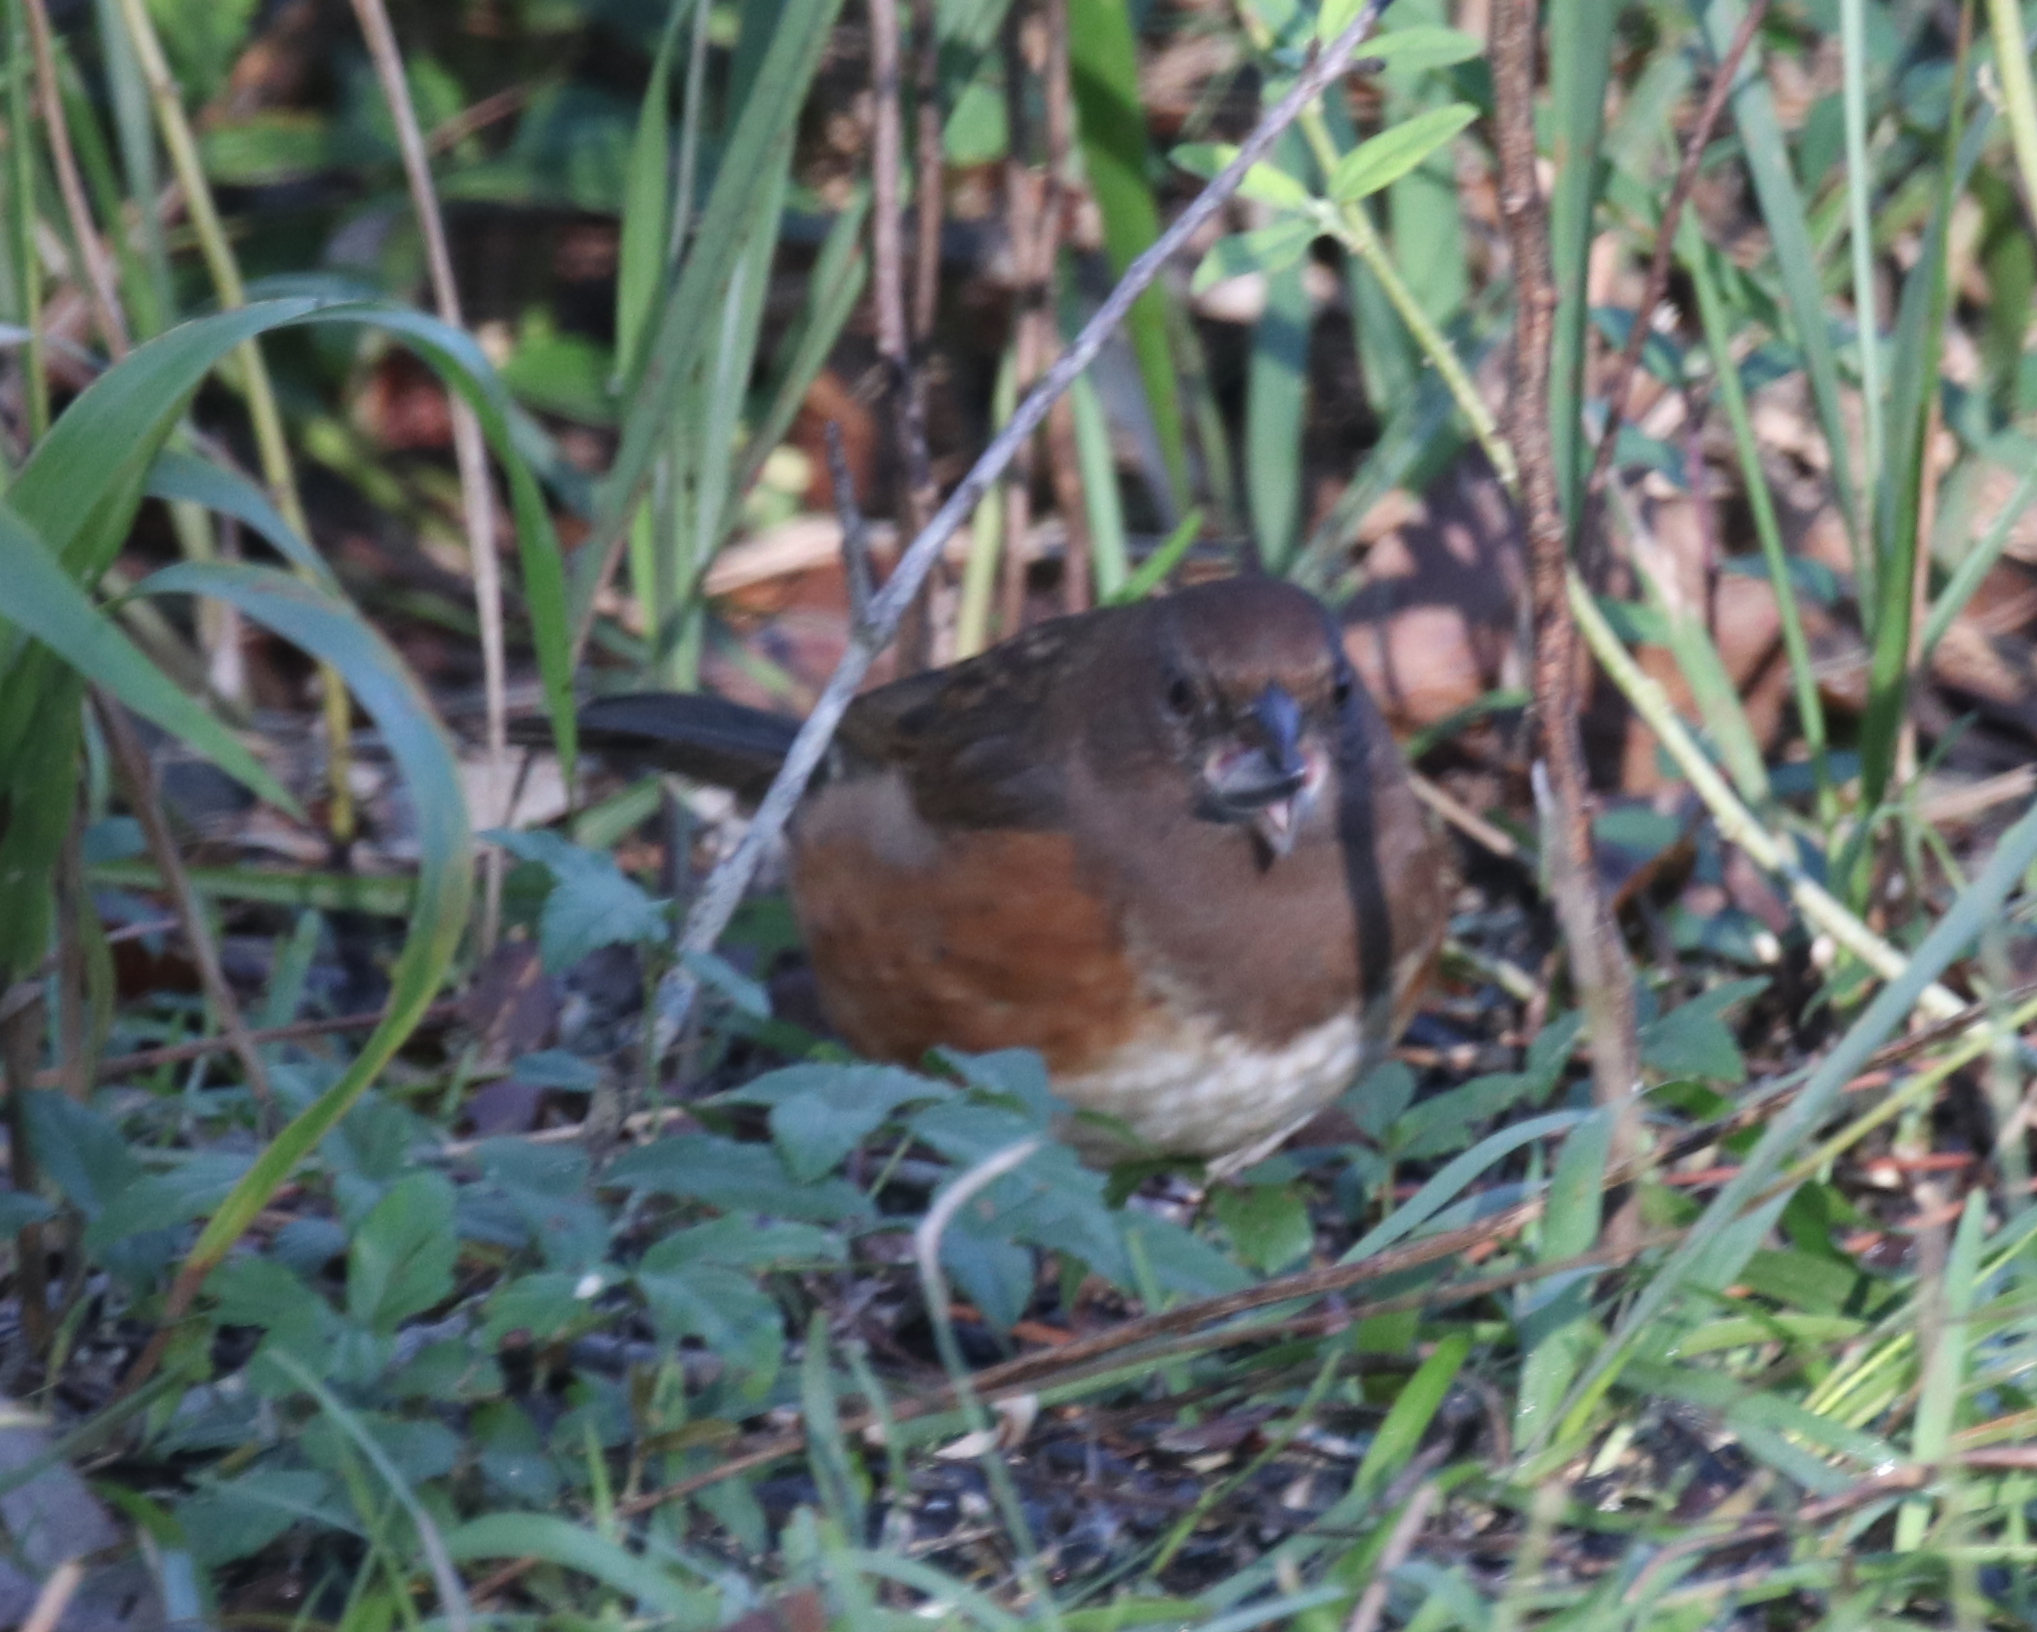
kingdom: Animalia
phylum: Chordata
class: Aves
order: Passeriformes
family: Passerellidae
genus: Pipilo
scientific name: Pipilo erythrophthalmus
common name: Eastern towhee
